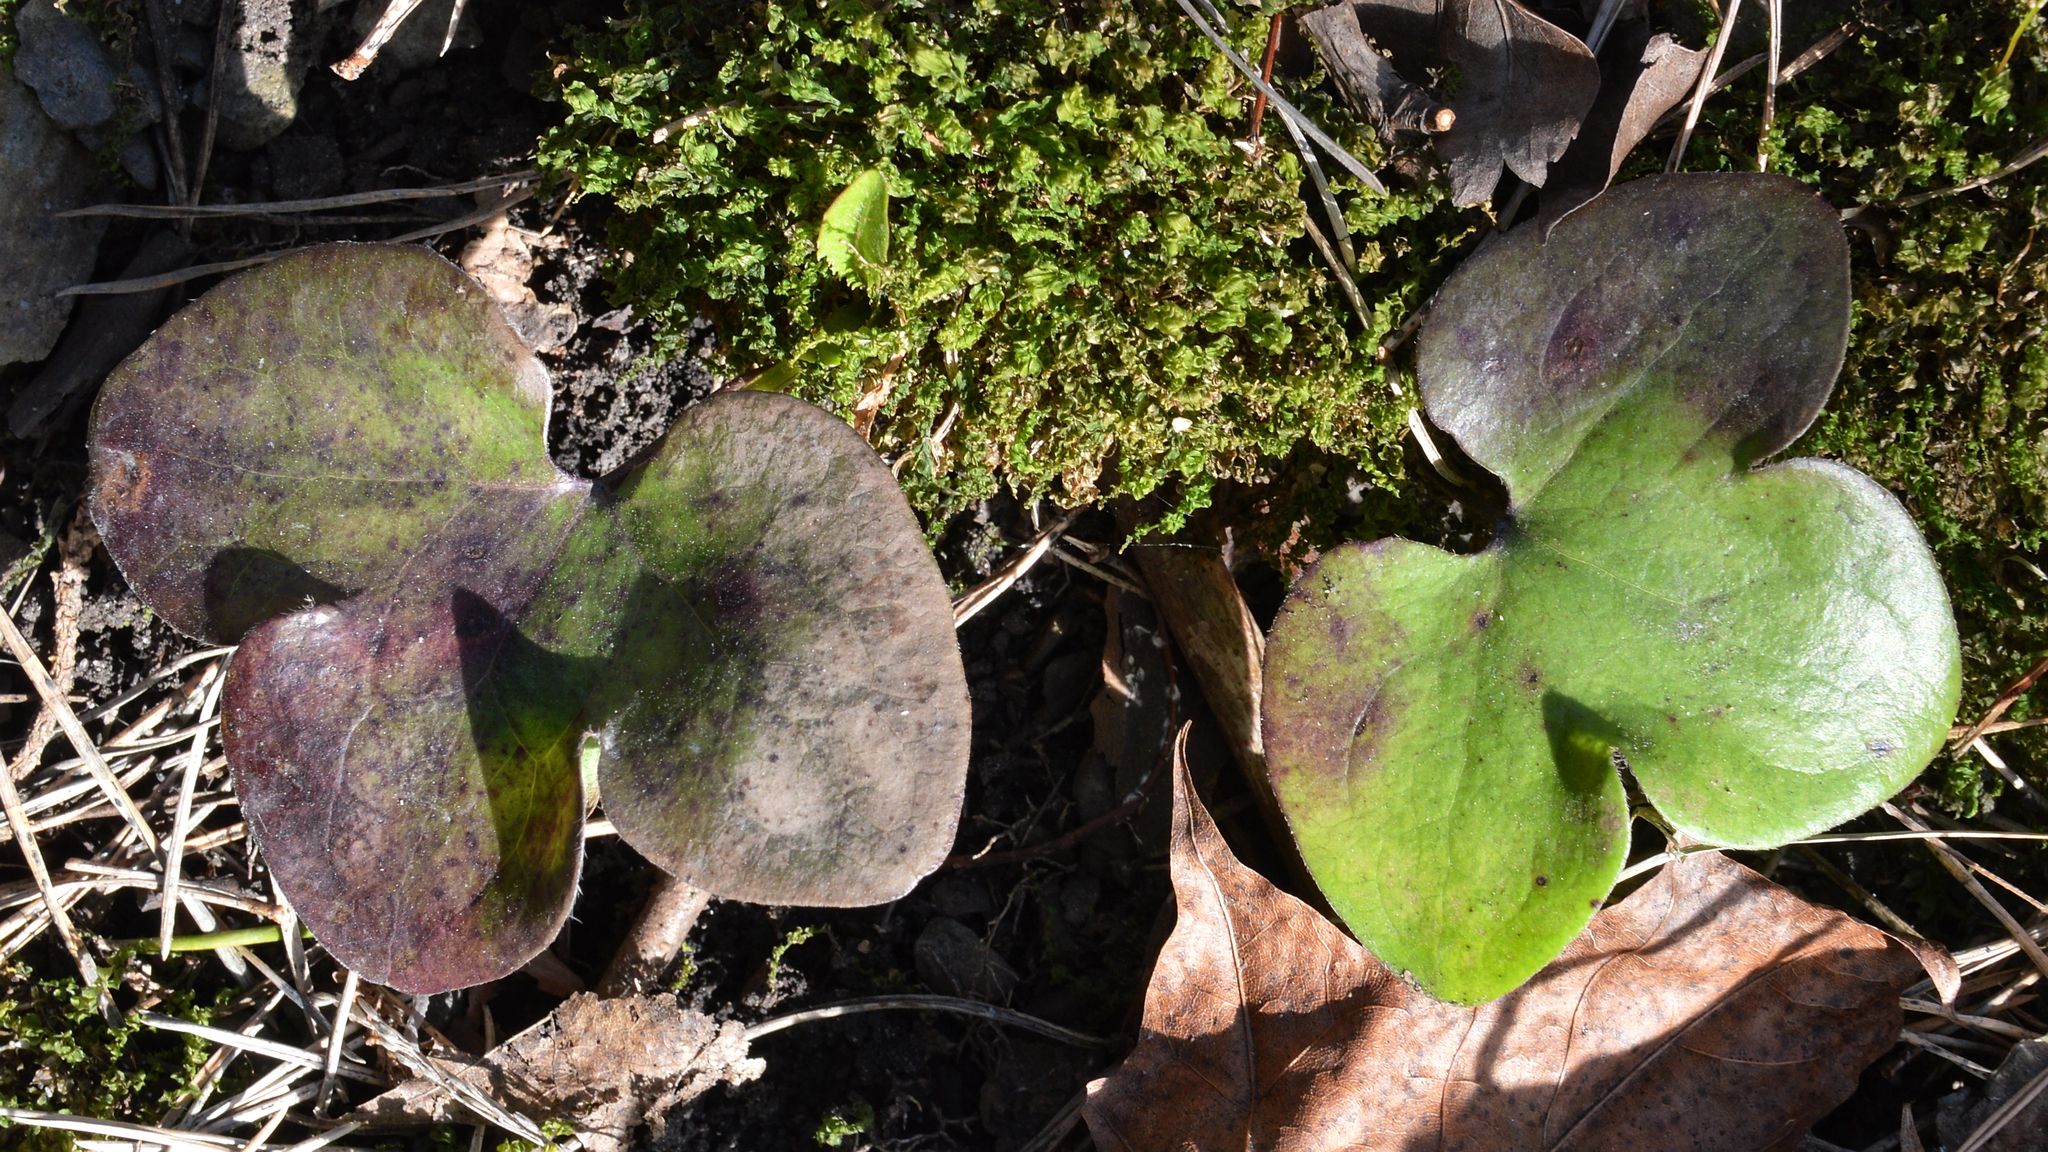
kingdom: Plantae
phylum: Tracheophyta
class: Magnoliopsida
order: Ranunculales
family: Ranunculaceae
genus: Hepatica
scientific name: Hepatica nobilis
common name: Liverleaf
